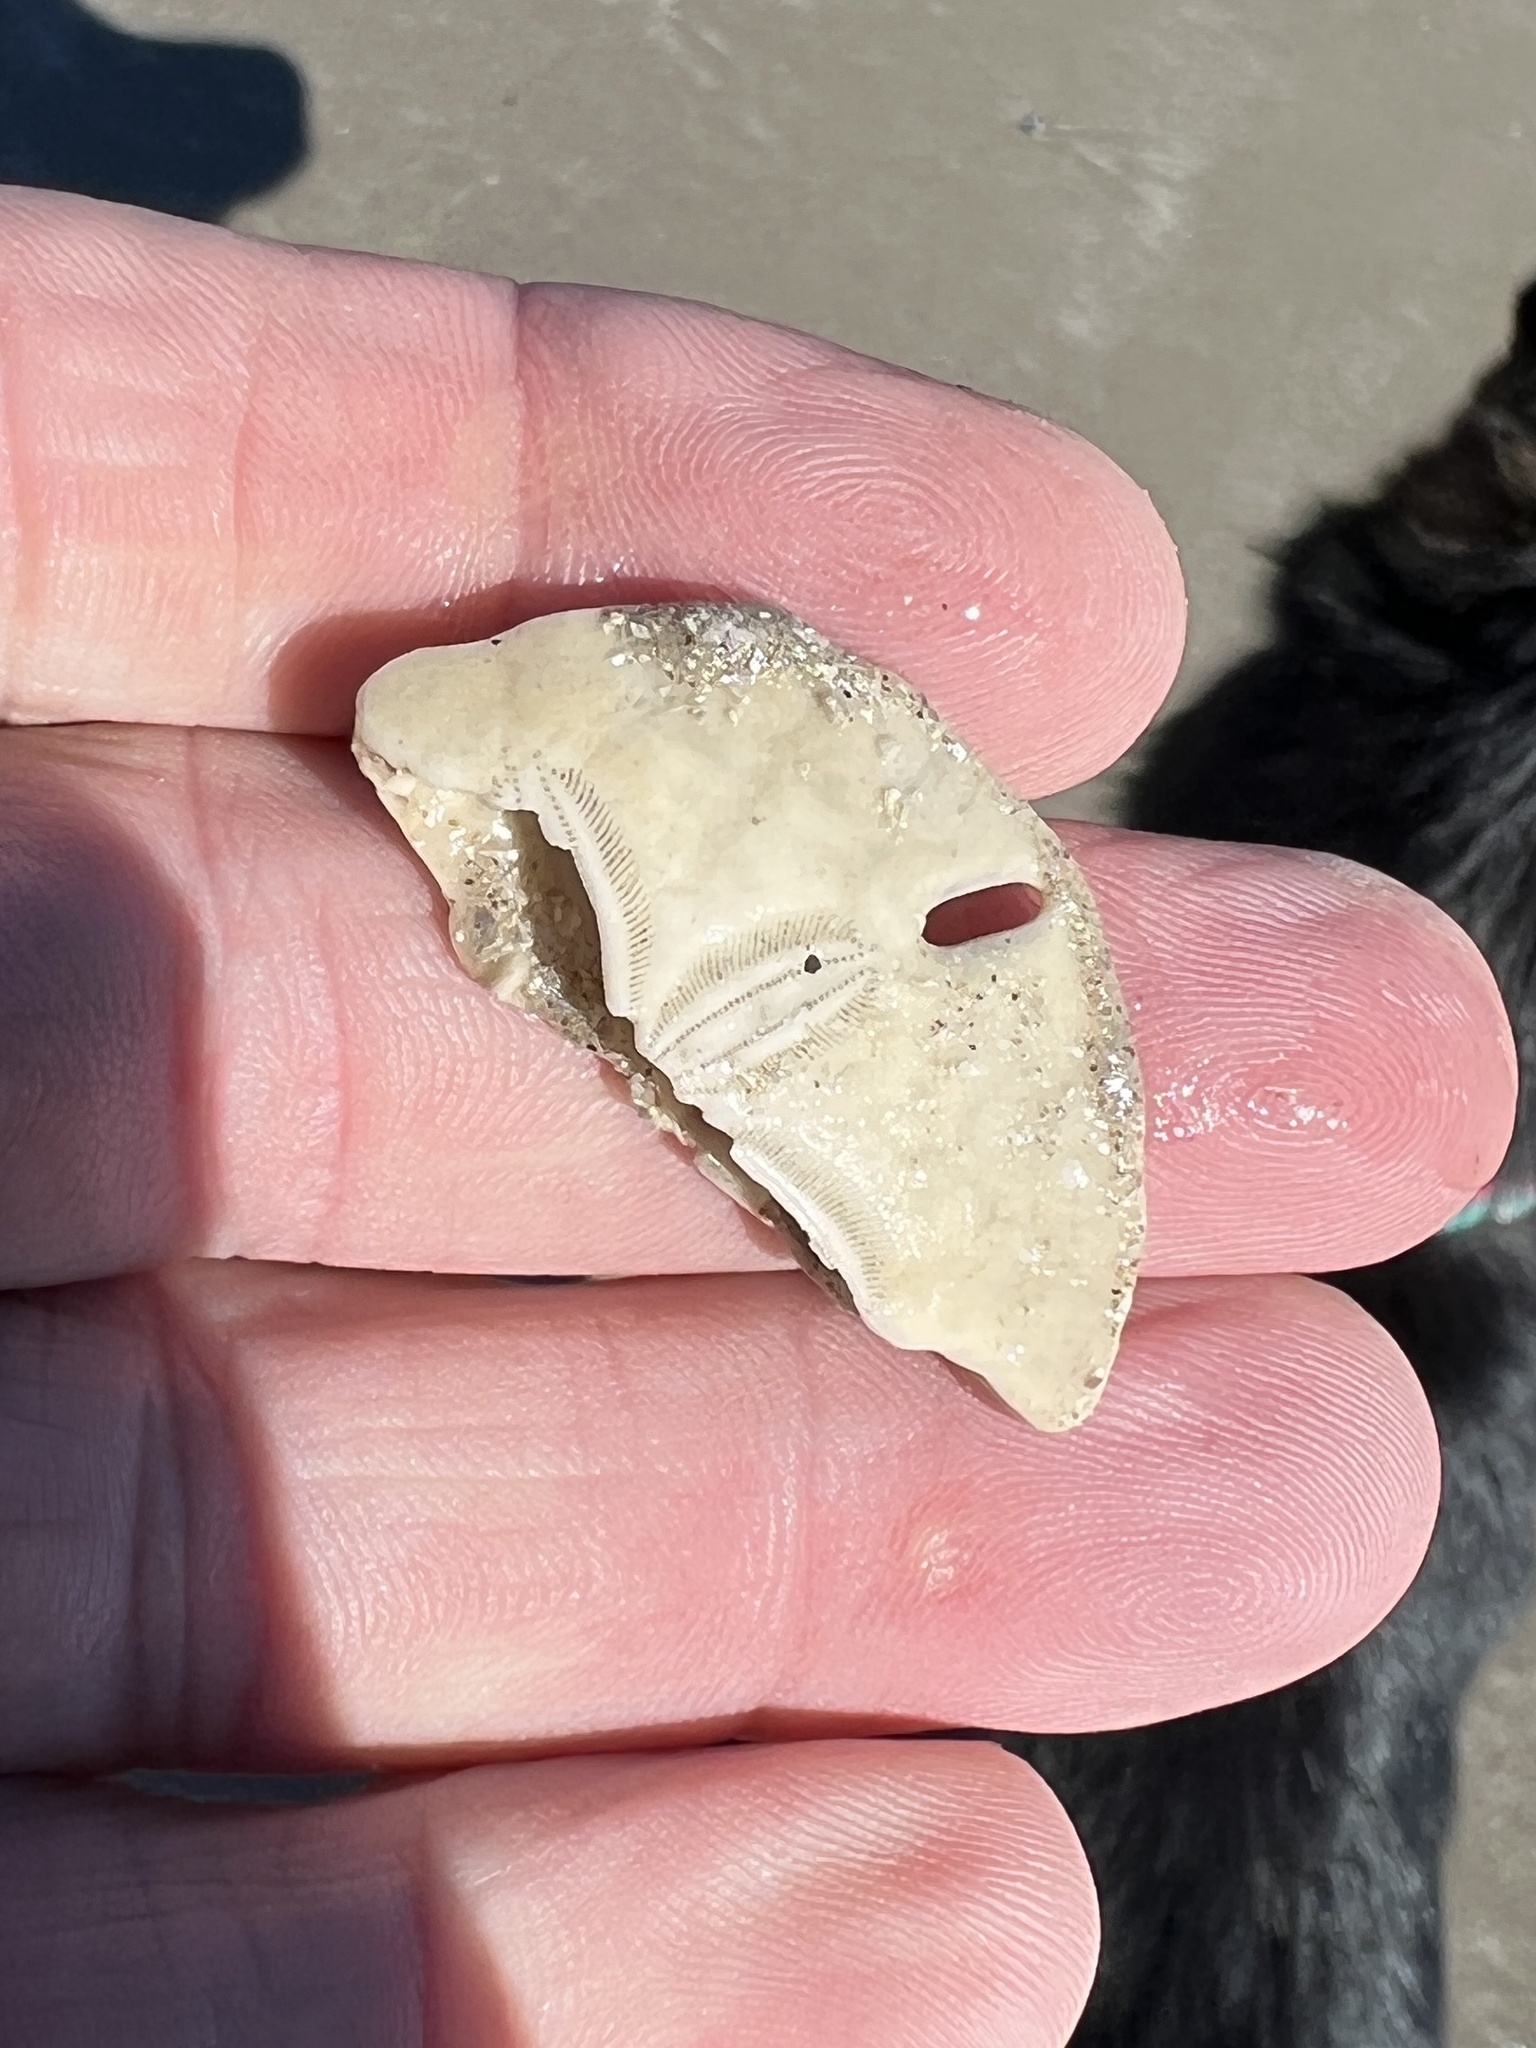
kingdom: Animalia
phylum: Echinodermata
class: Echinoidea
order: Echinolampadacea
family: Mellitidae
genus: Mellita
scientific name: Mellita quinquiesperforata
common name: Sand dollar
